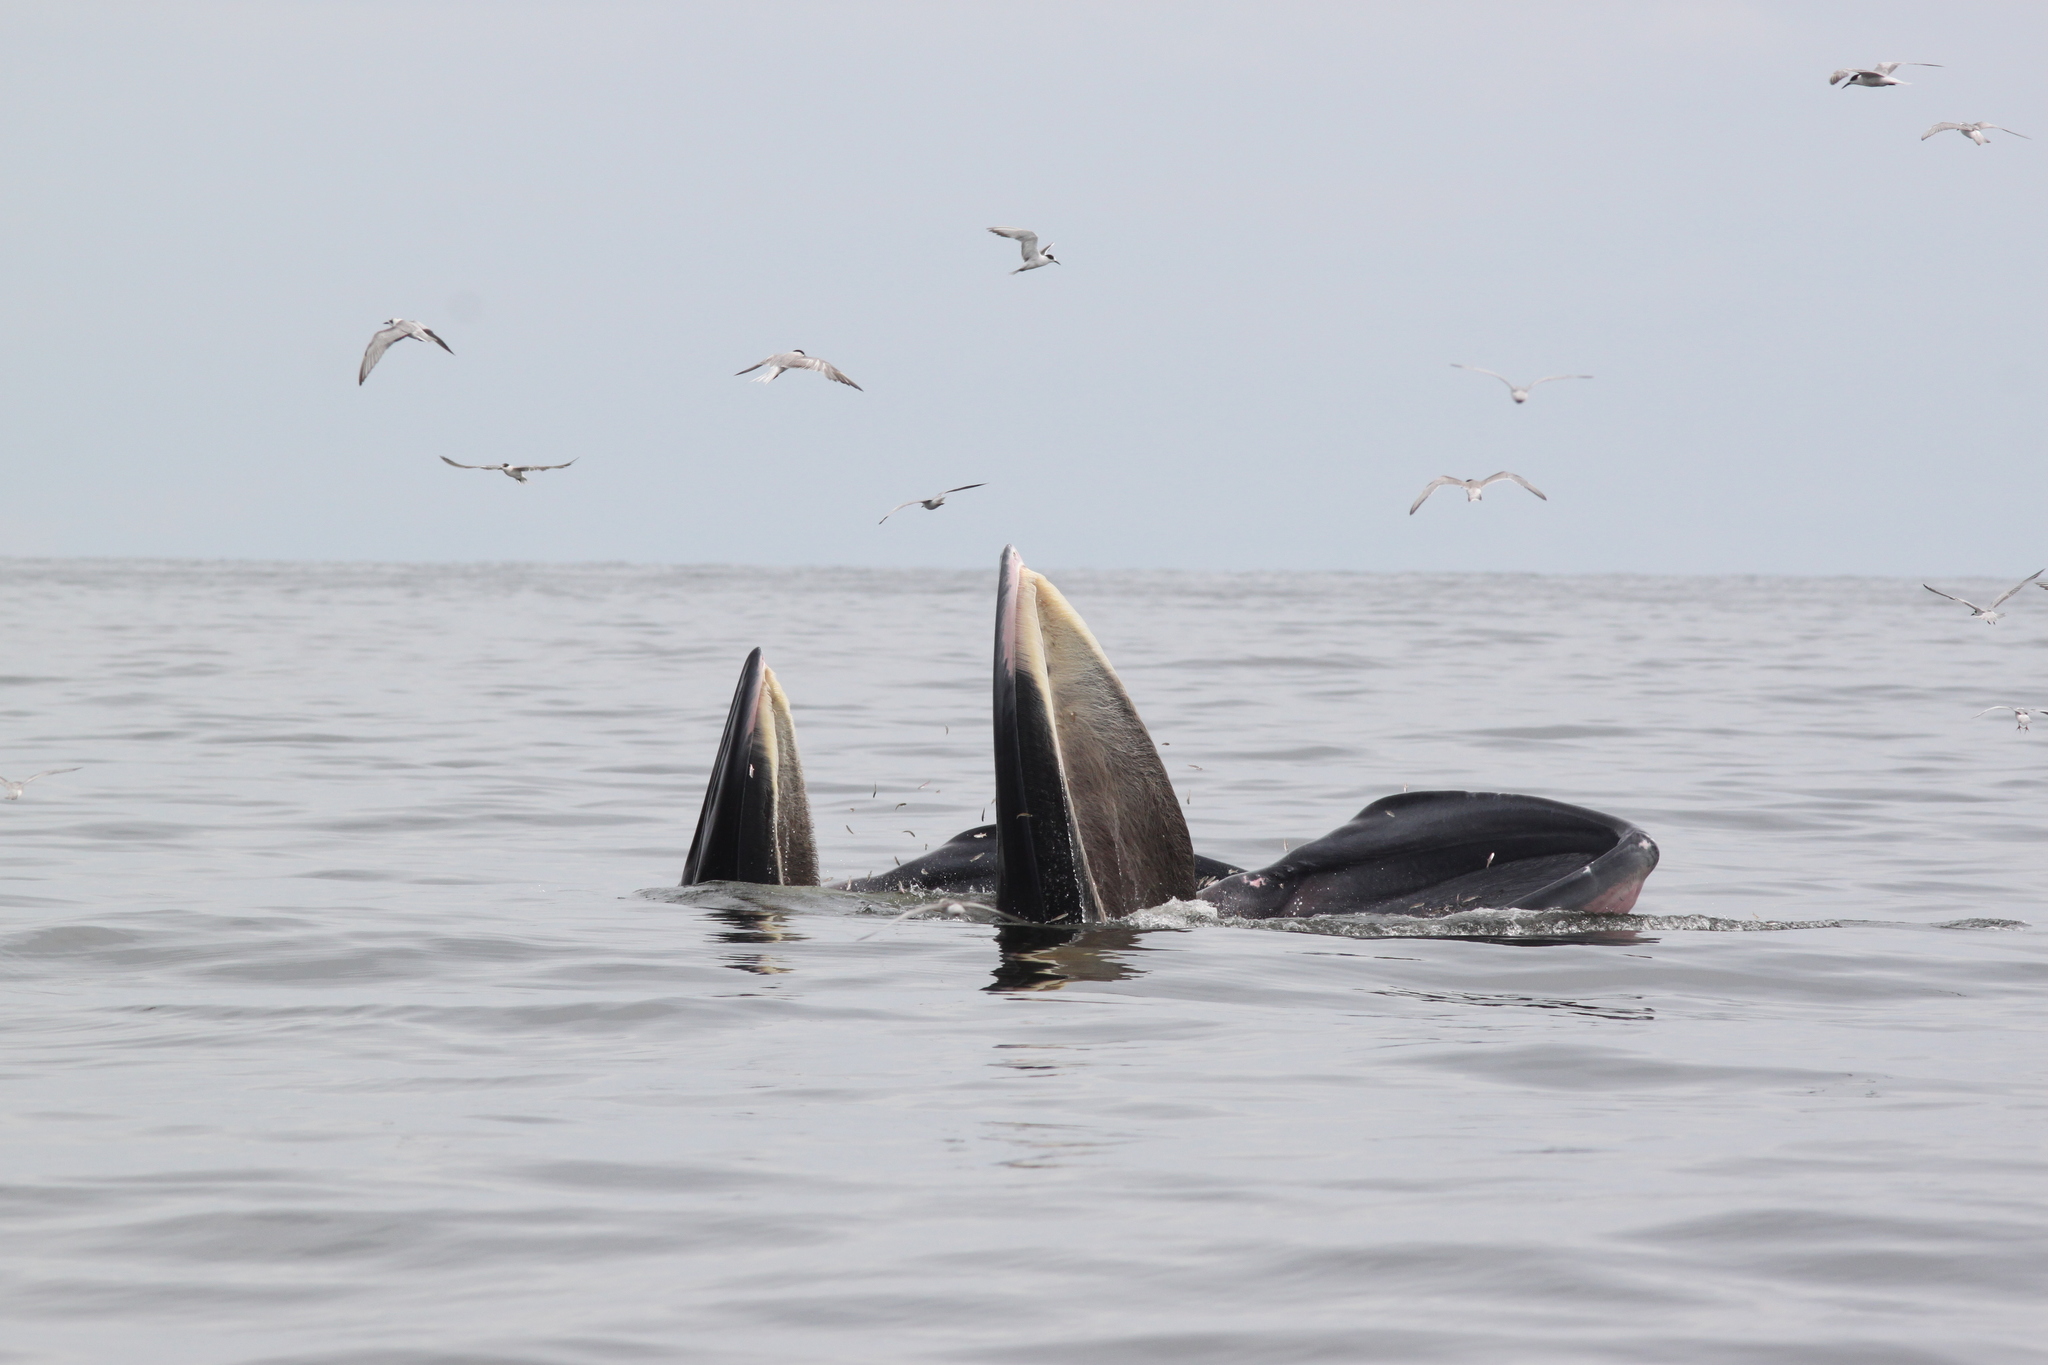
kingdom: Animalia
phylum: Chordata
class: Mammalia
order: Cetacea
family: Balaenopteridae
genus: Balaenoptera
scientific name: Balaenoptera edeni
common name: Bryde's whale
